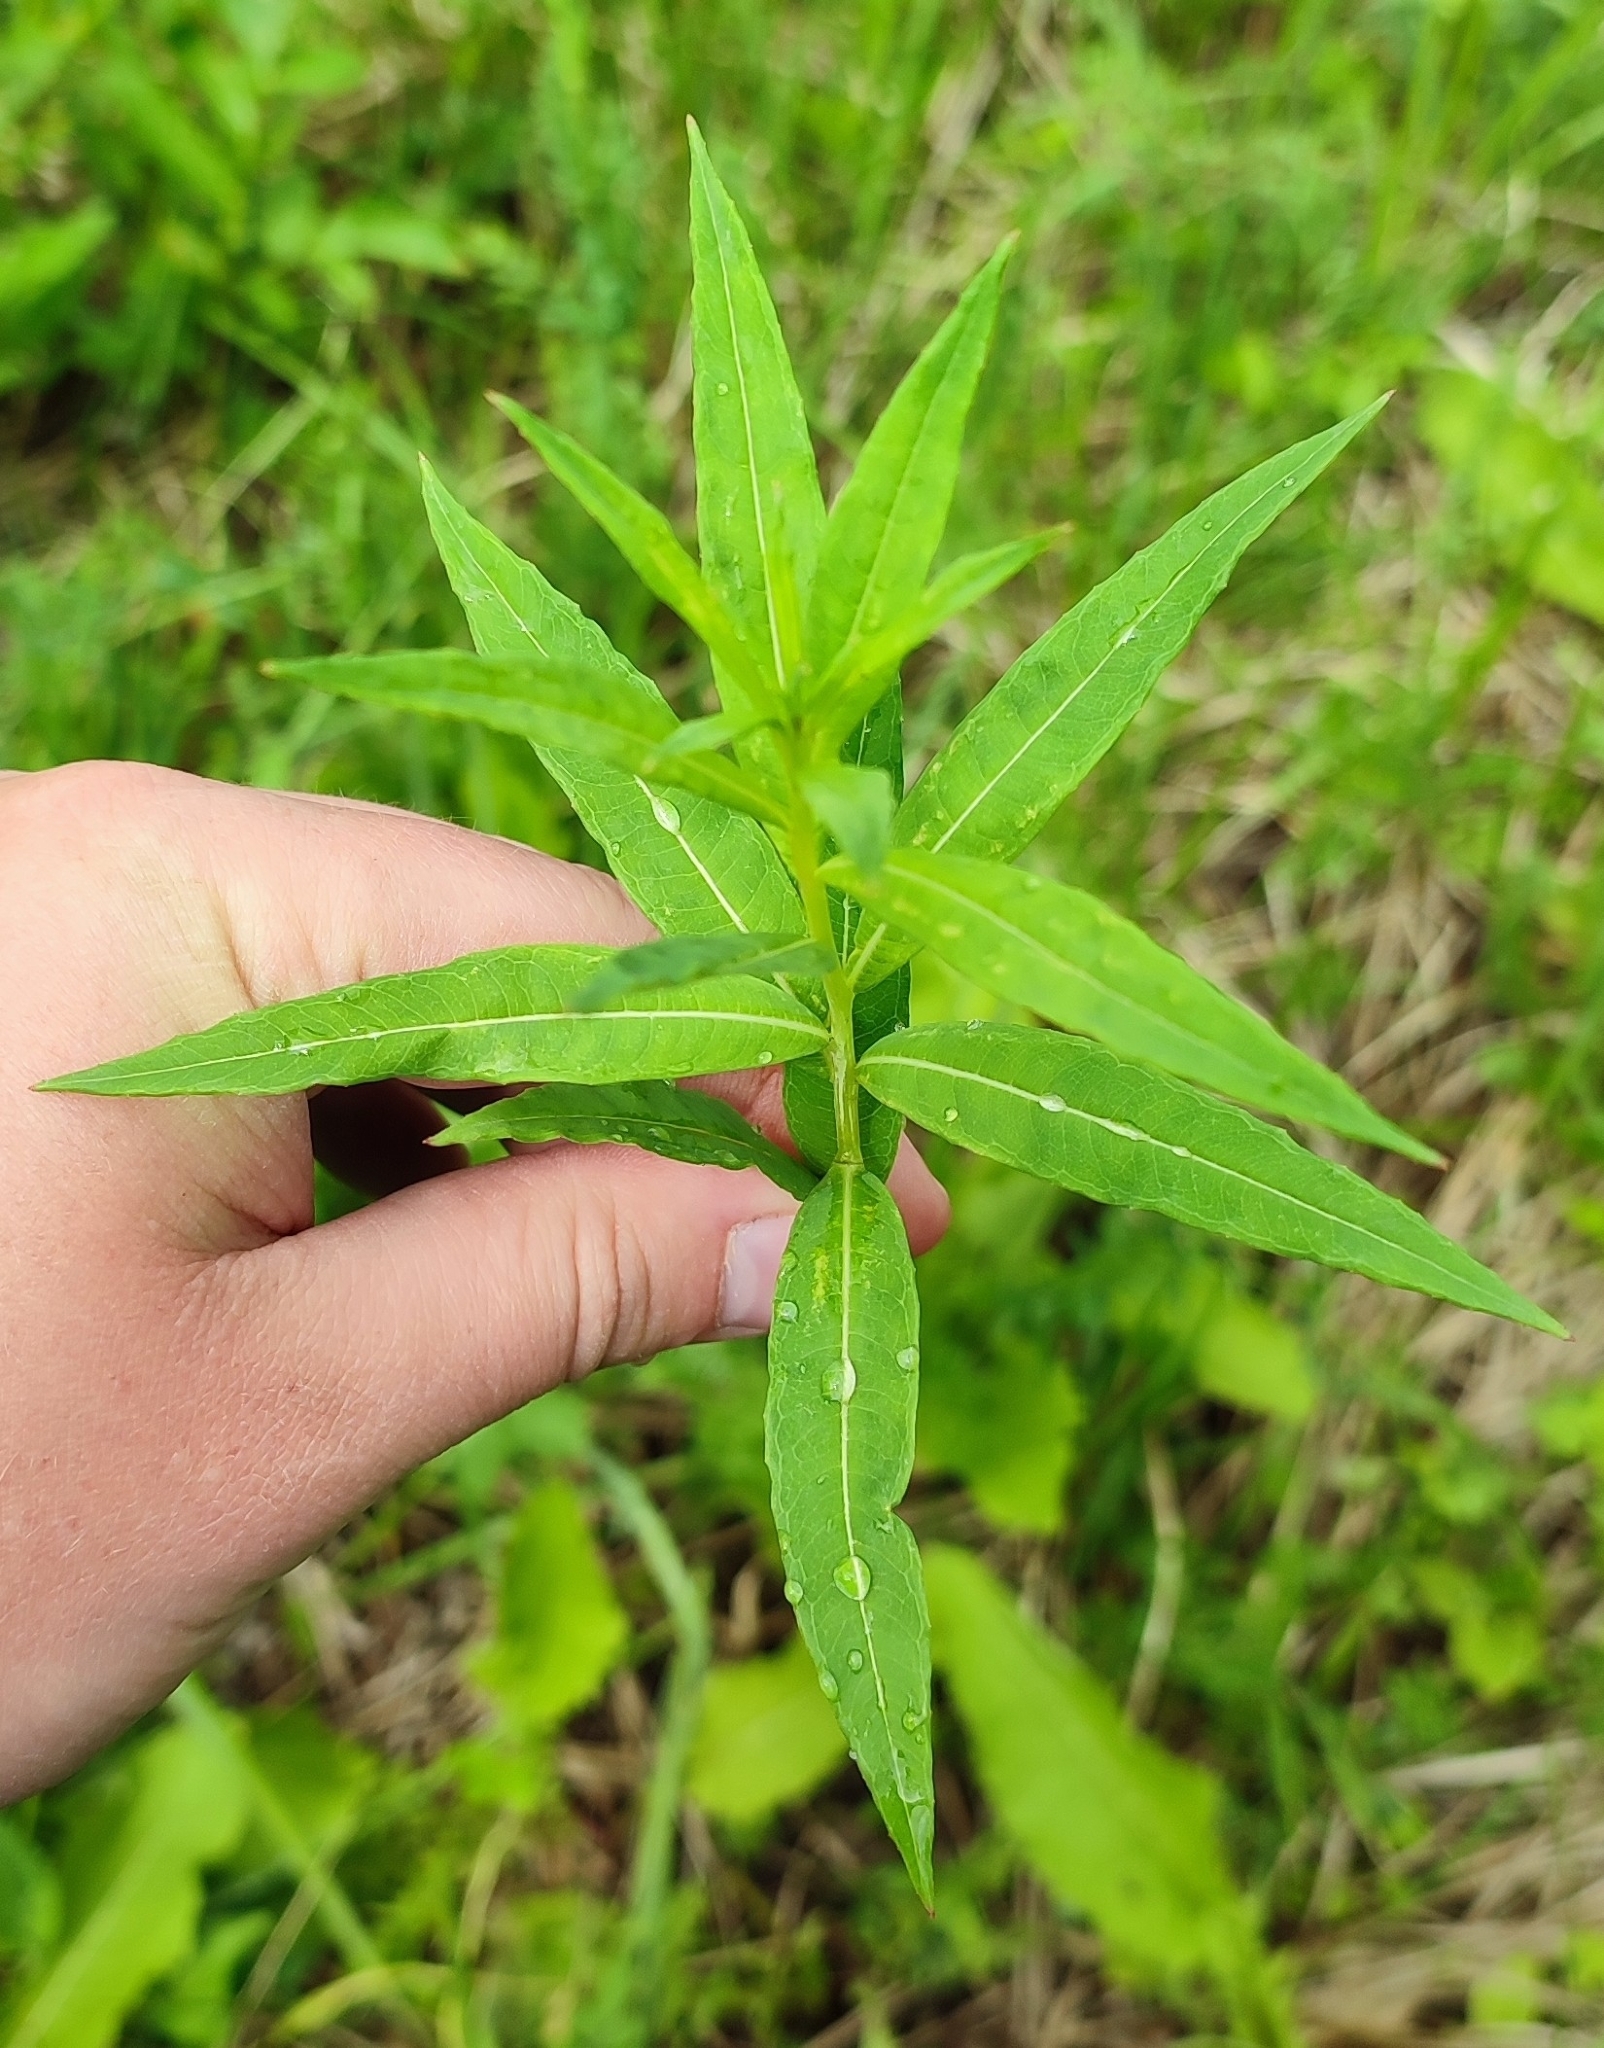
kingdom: Plantae
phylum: Tracheophyta
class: Magnoliopsida
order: Myrtales
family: Onagraceae
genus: Chamaenerion
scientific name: Chamaenerion angustifolium
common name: Fireweed
